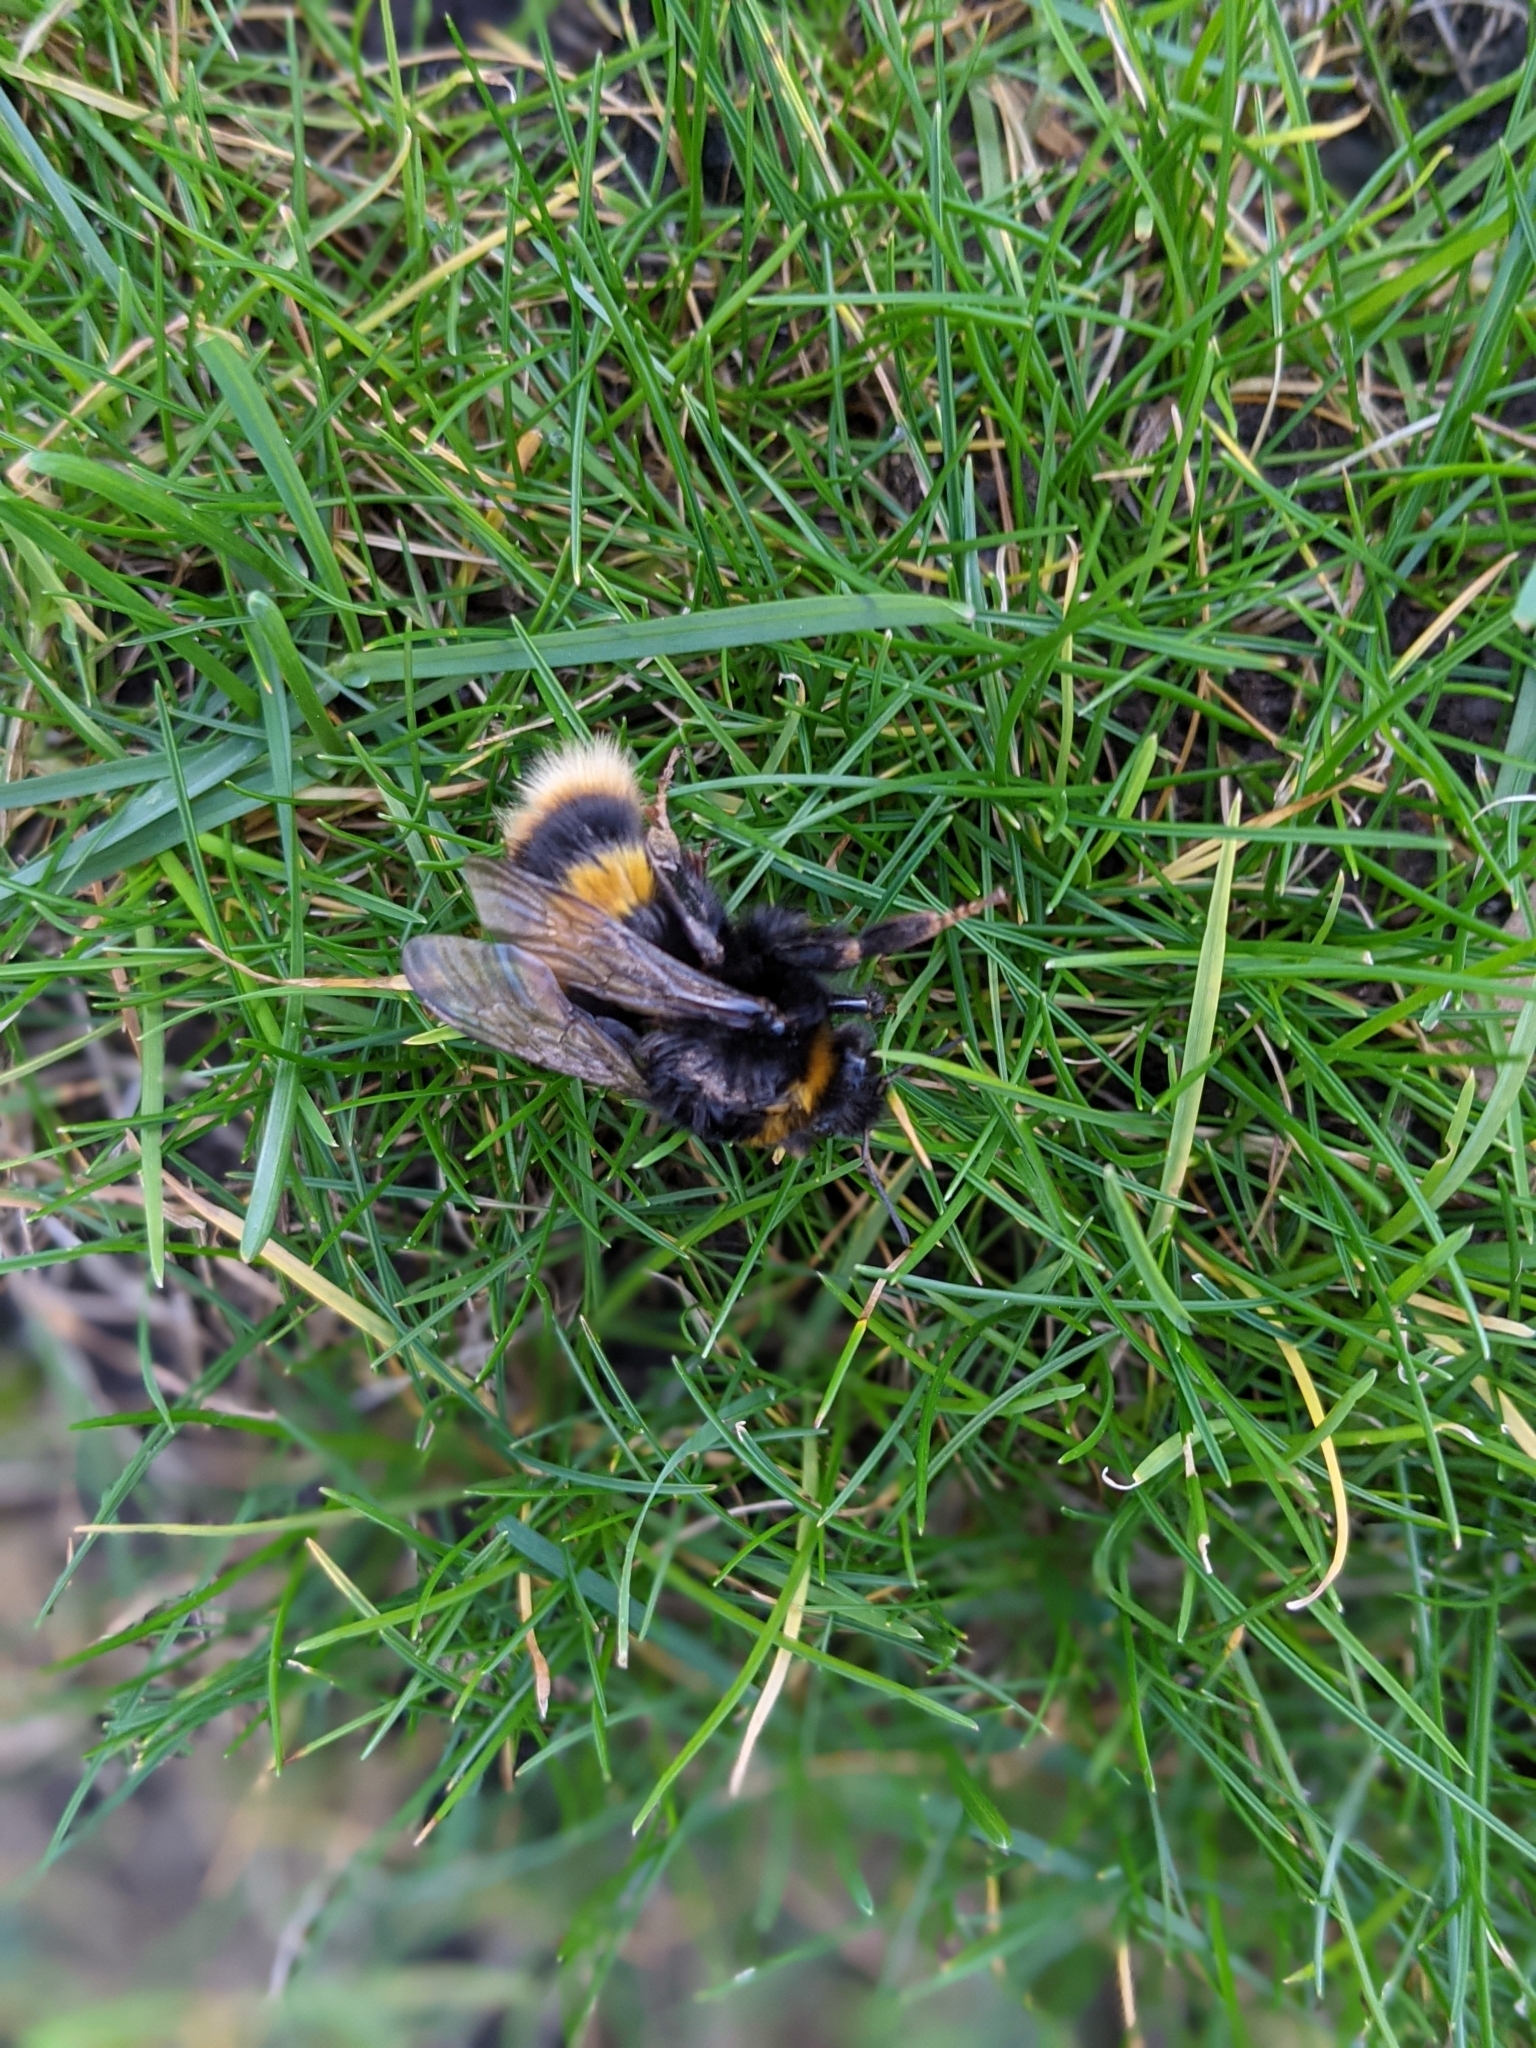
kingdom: Animalia
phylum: Arthropoda
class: Insecta
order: Hymenoptera
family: Apidae
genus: Bombus
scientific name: Bombus terrestris
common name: Buff-tailed bumblebee
